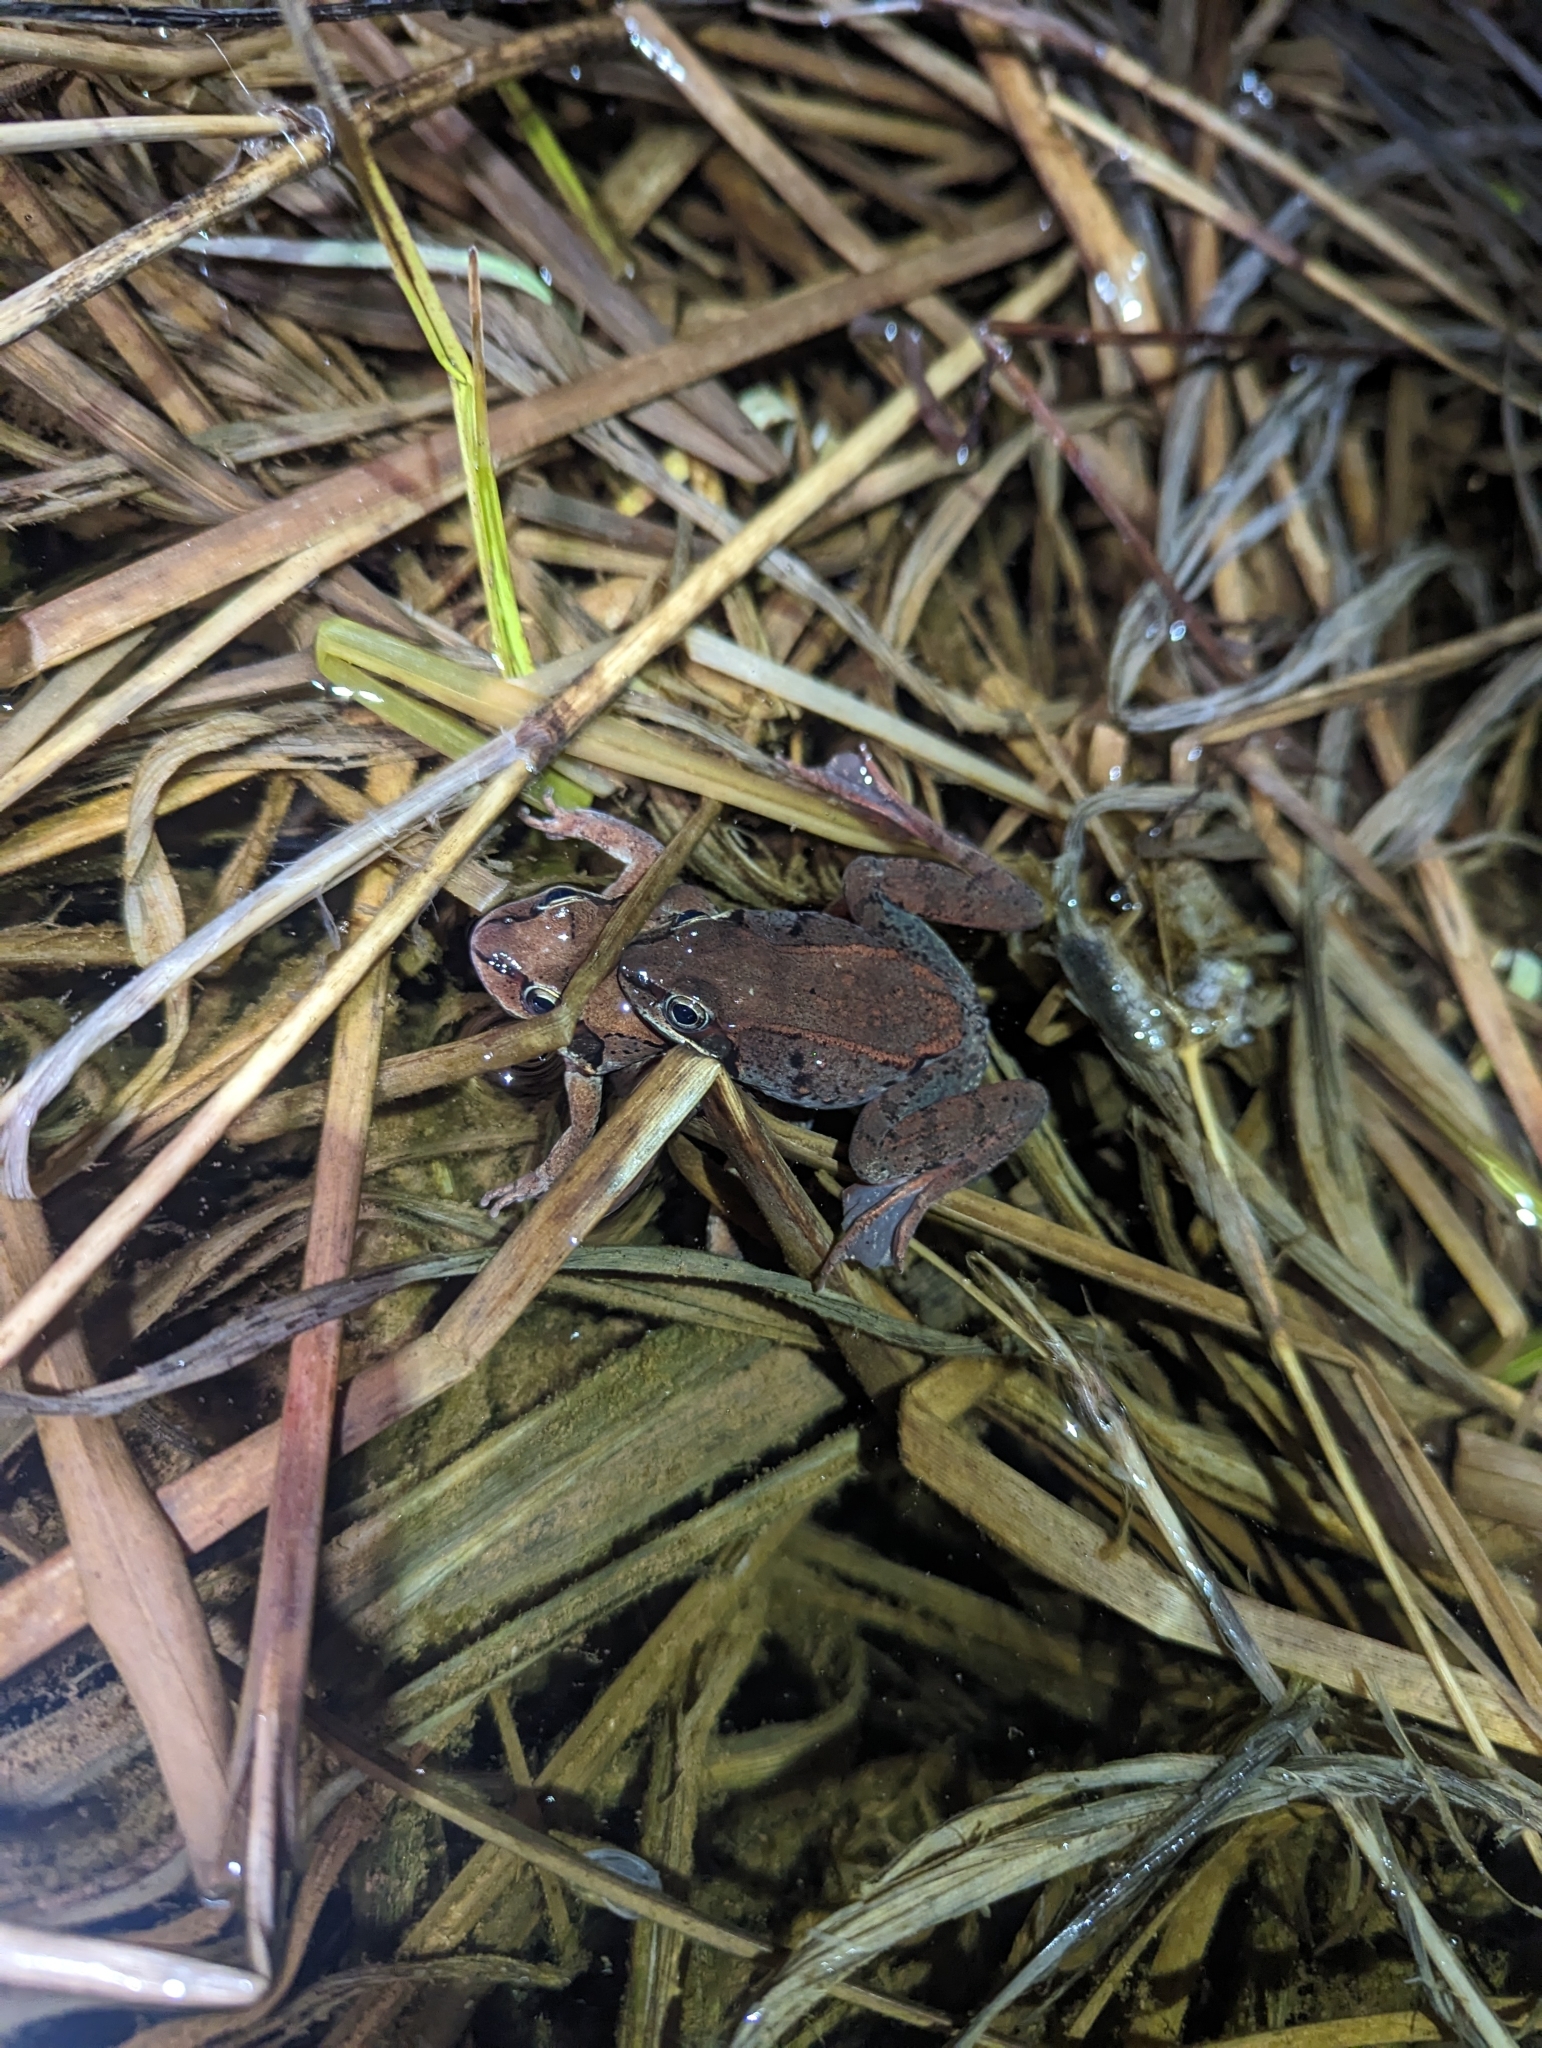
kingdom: Animalia
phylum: Chordata
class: Amphibia
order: Anura
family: Ranidae
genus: Lithobates
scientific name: Lithobates sylvaticus
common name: Wood frog
